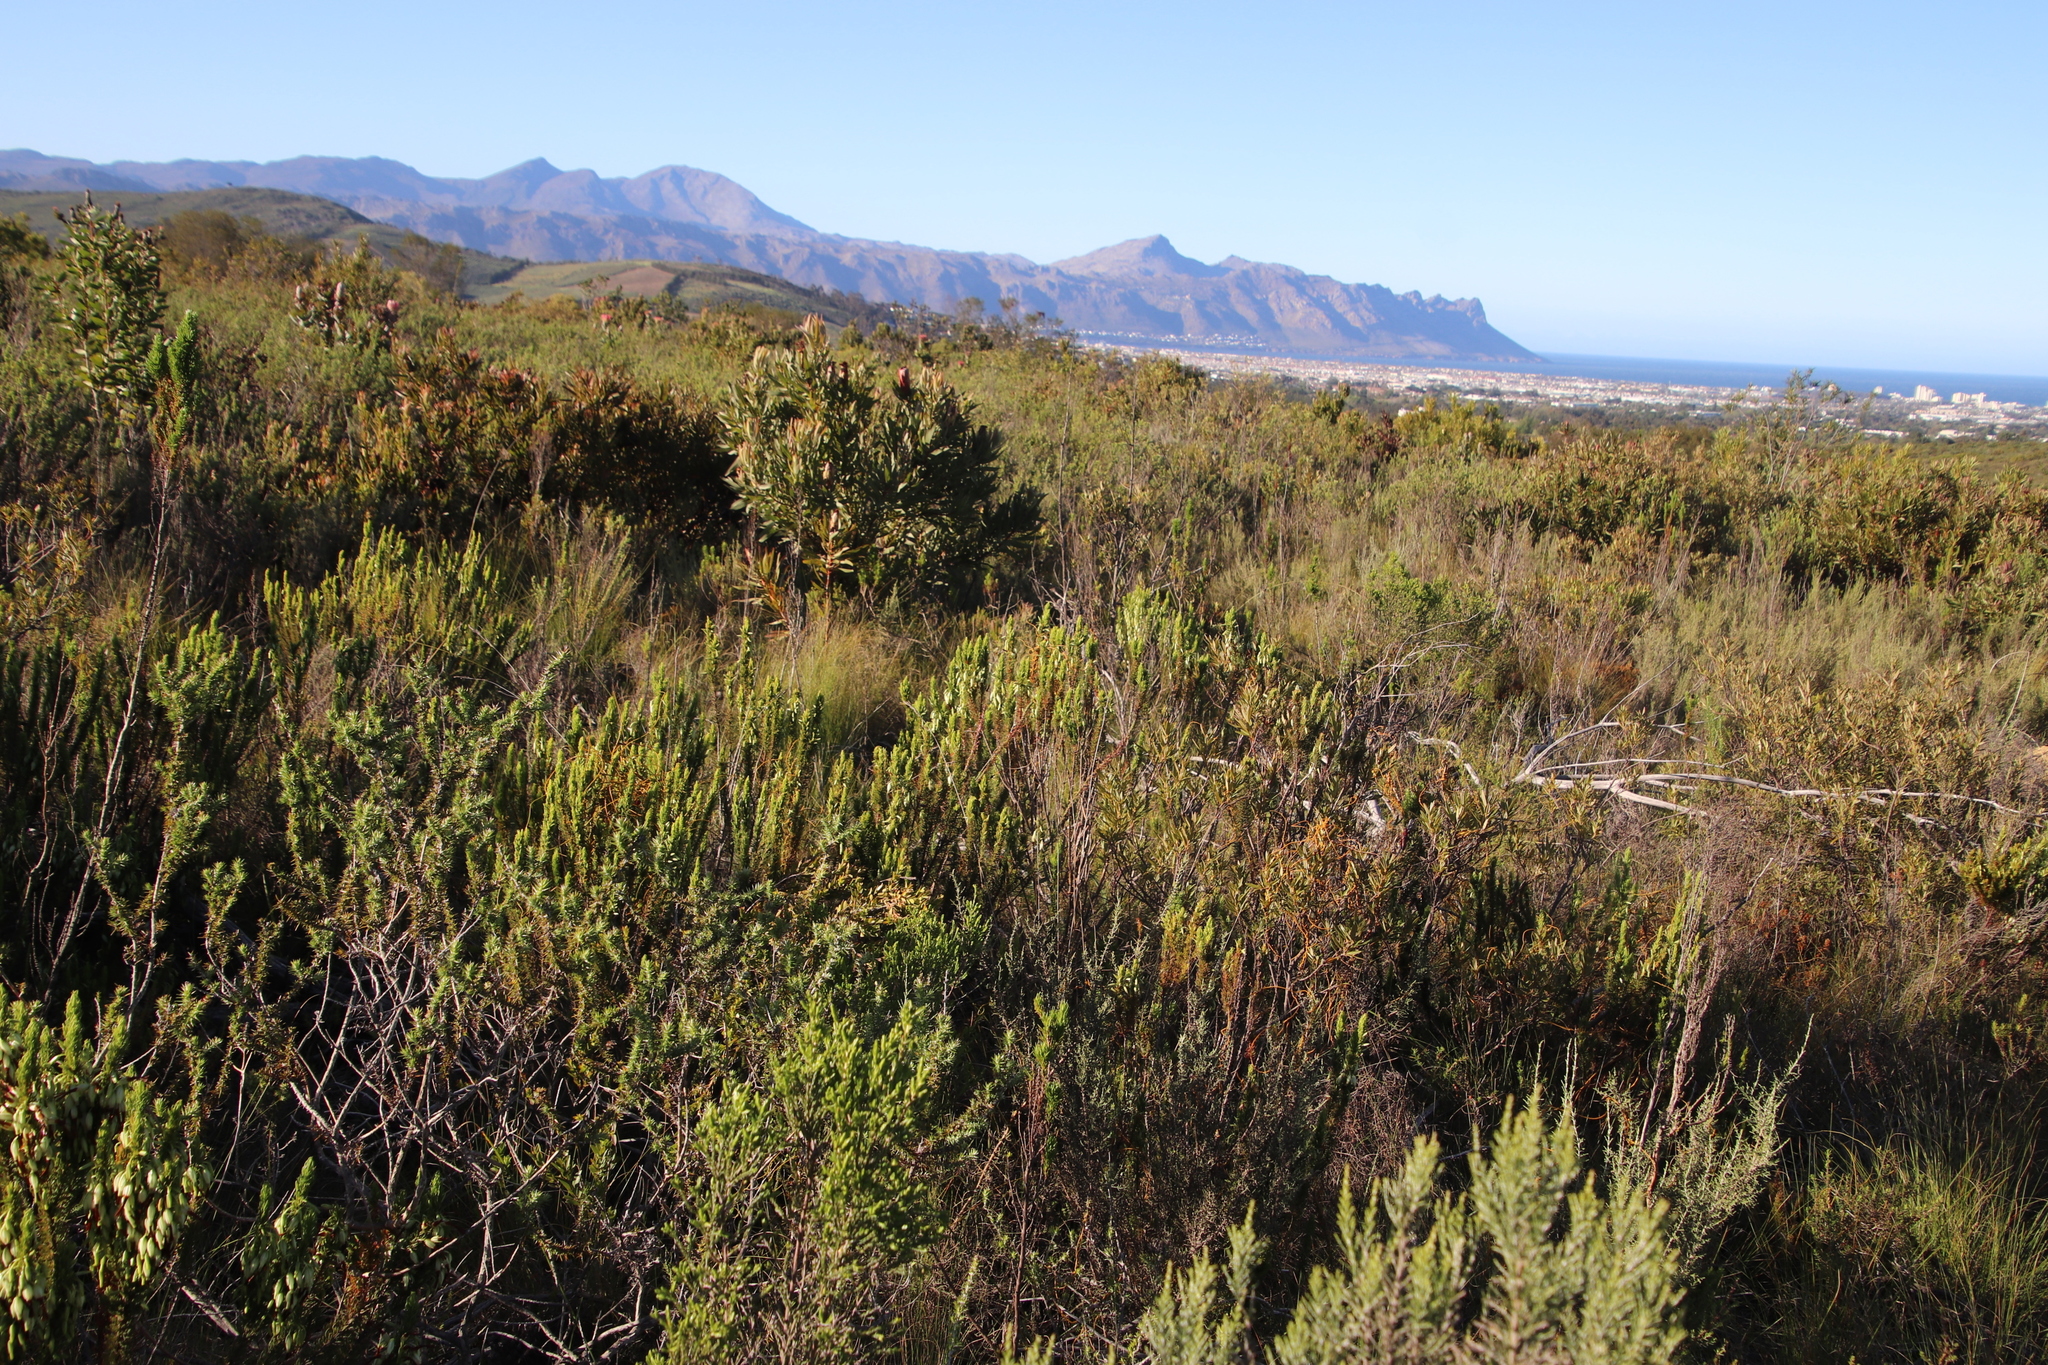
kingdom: Plantae
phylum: Tracheophyta
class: Magnoliopsida
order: Ericales
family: Ericaceae
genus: Erica
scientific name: Erica plukenetii
